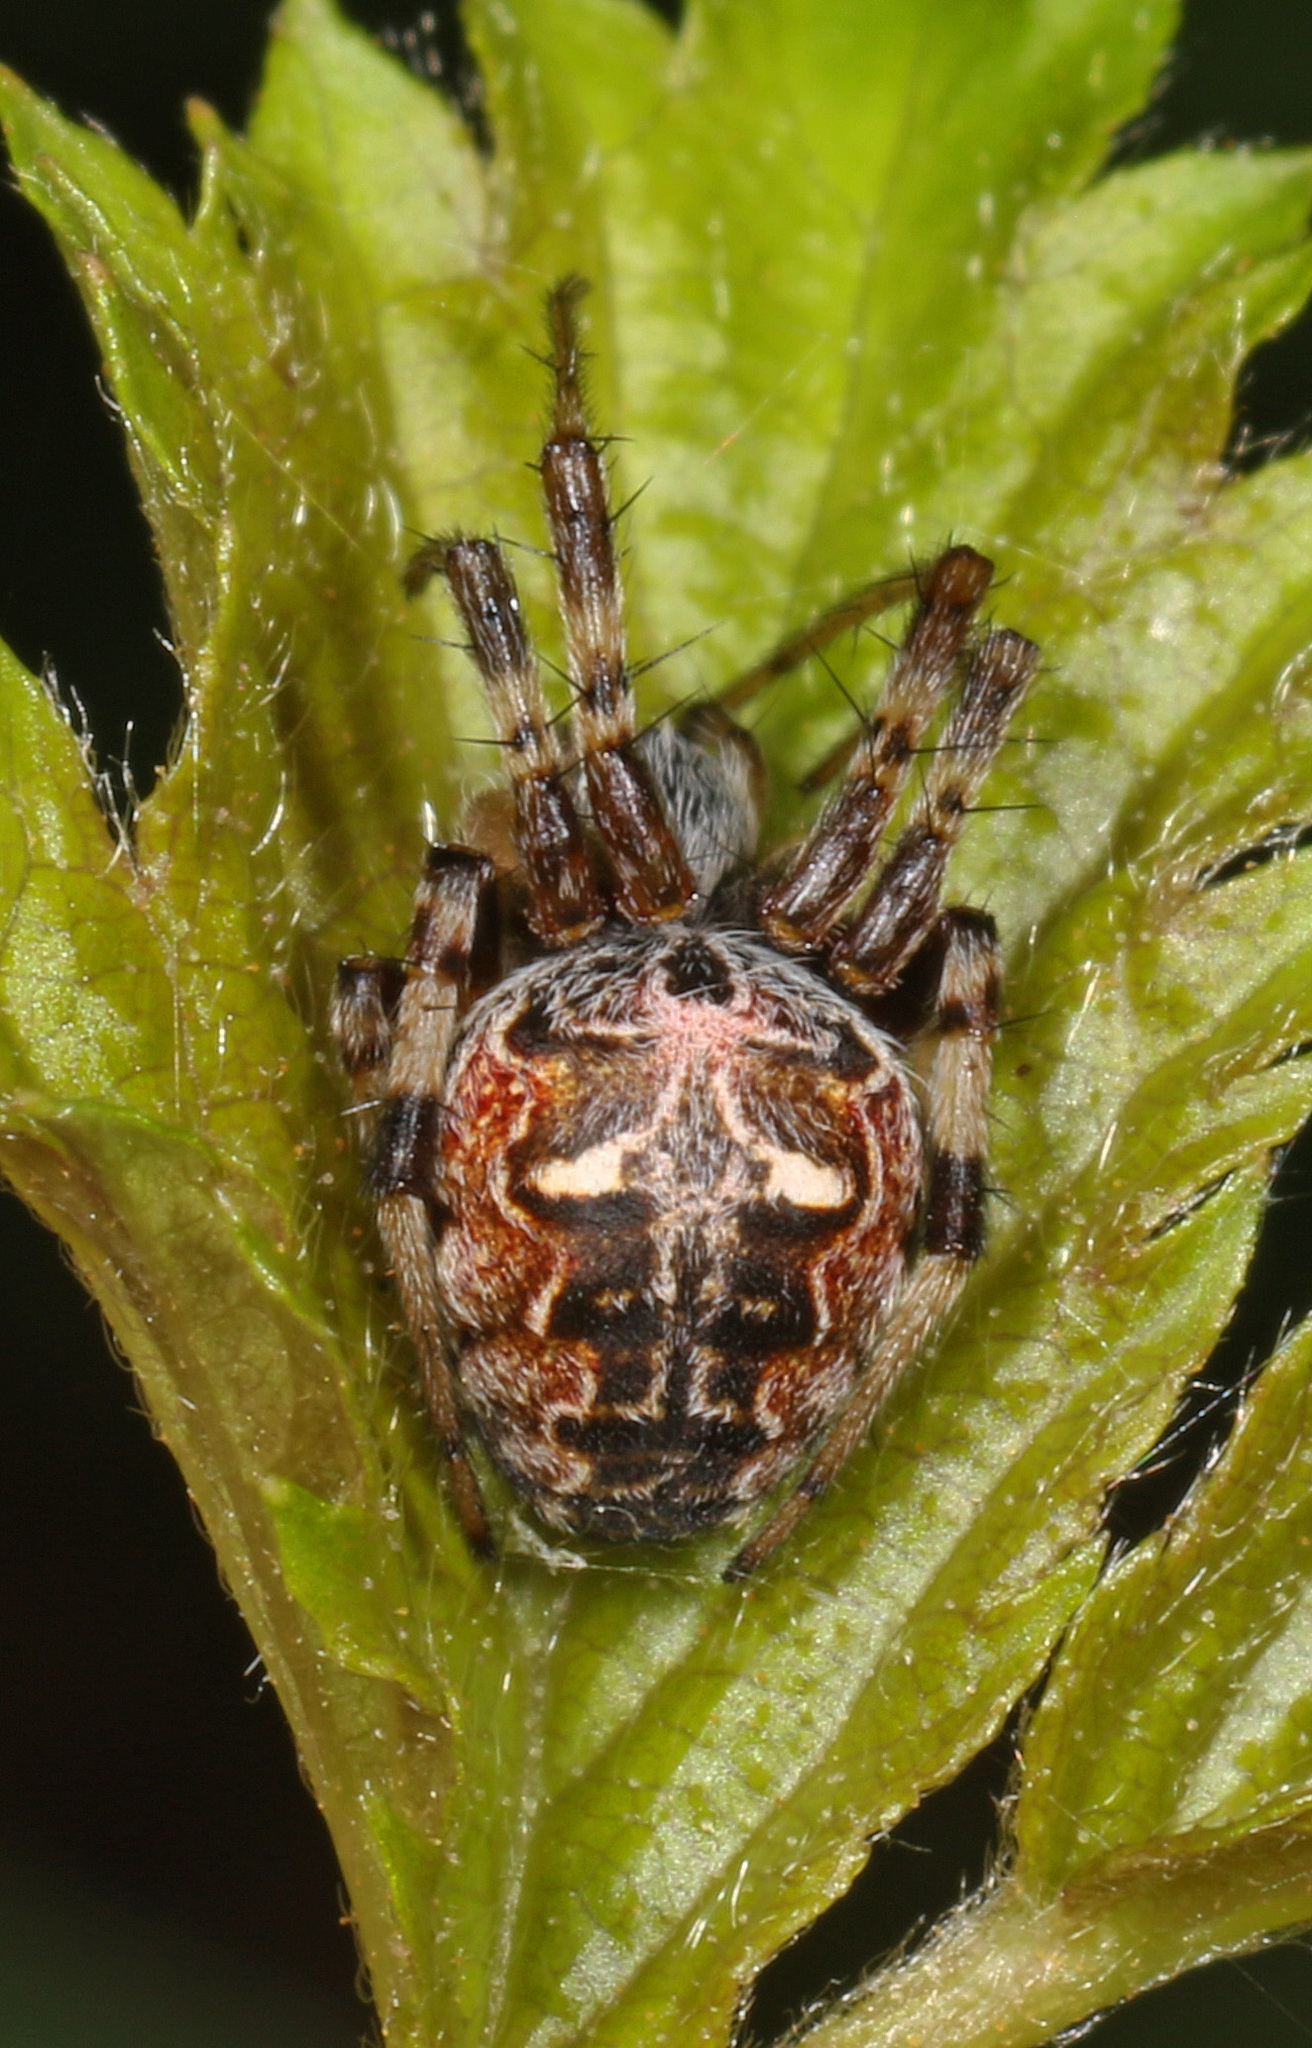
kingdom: Animalia
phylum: Arthropoda
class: Arachnida
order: Araneae
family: Araneidae
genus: Metepeira
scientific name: Metepeira labyrinthea
